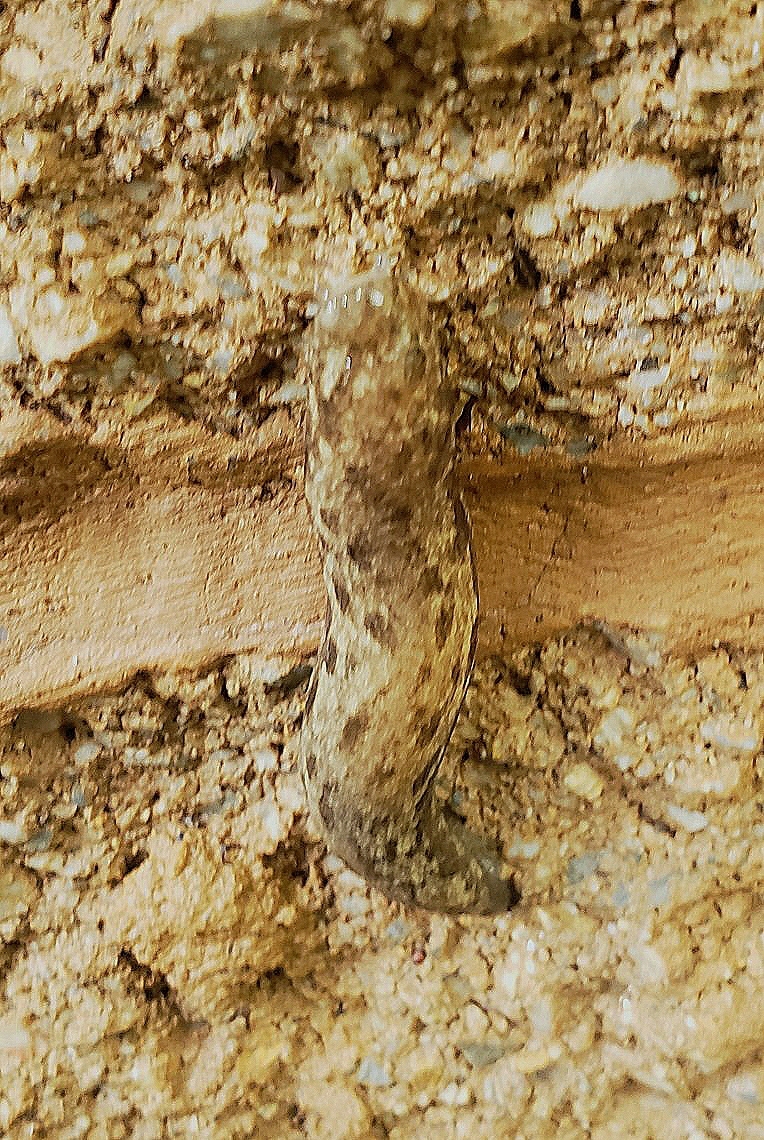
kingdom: Animalia
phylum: Mollusca
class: Gastropoda
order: Stylommatophora
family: Philomycidae
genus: Megapallifera
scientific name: Megapallifera mutabilis
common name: Changeable mantleslug
